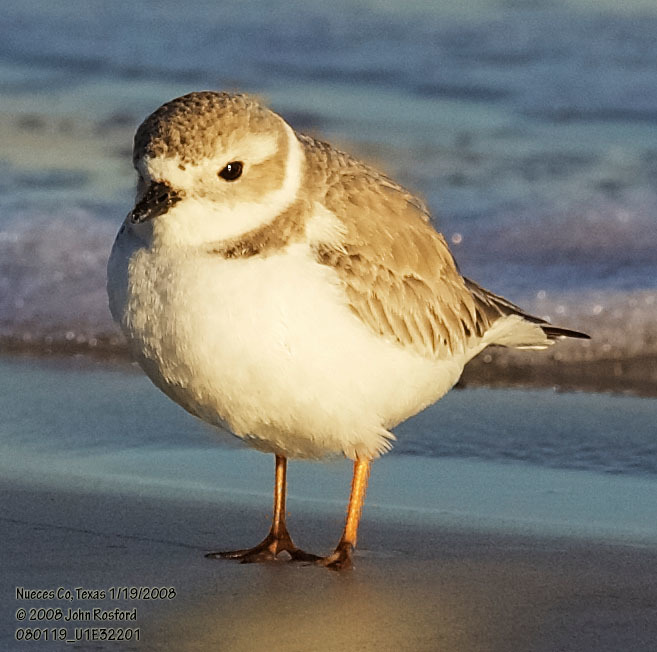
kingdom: Animalia
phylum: Chordata
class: Aves
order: Charadriiformes
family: Charadriidae
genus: Charadrius
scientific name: Charadrius melodus
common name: Piping plover
